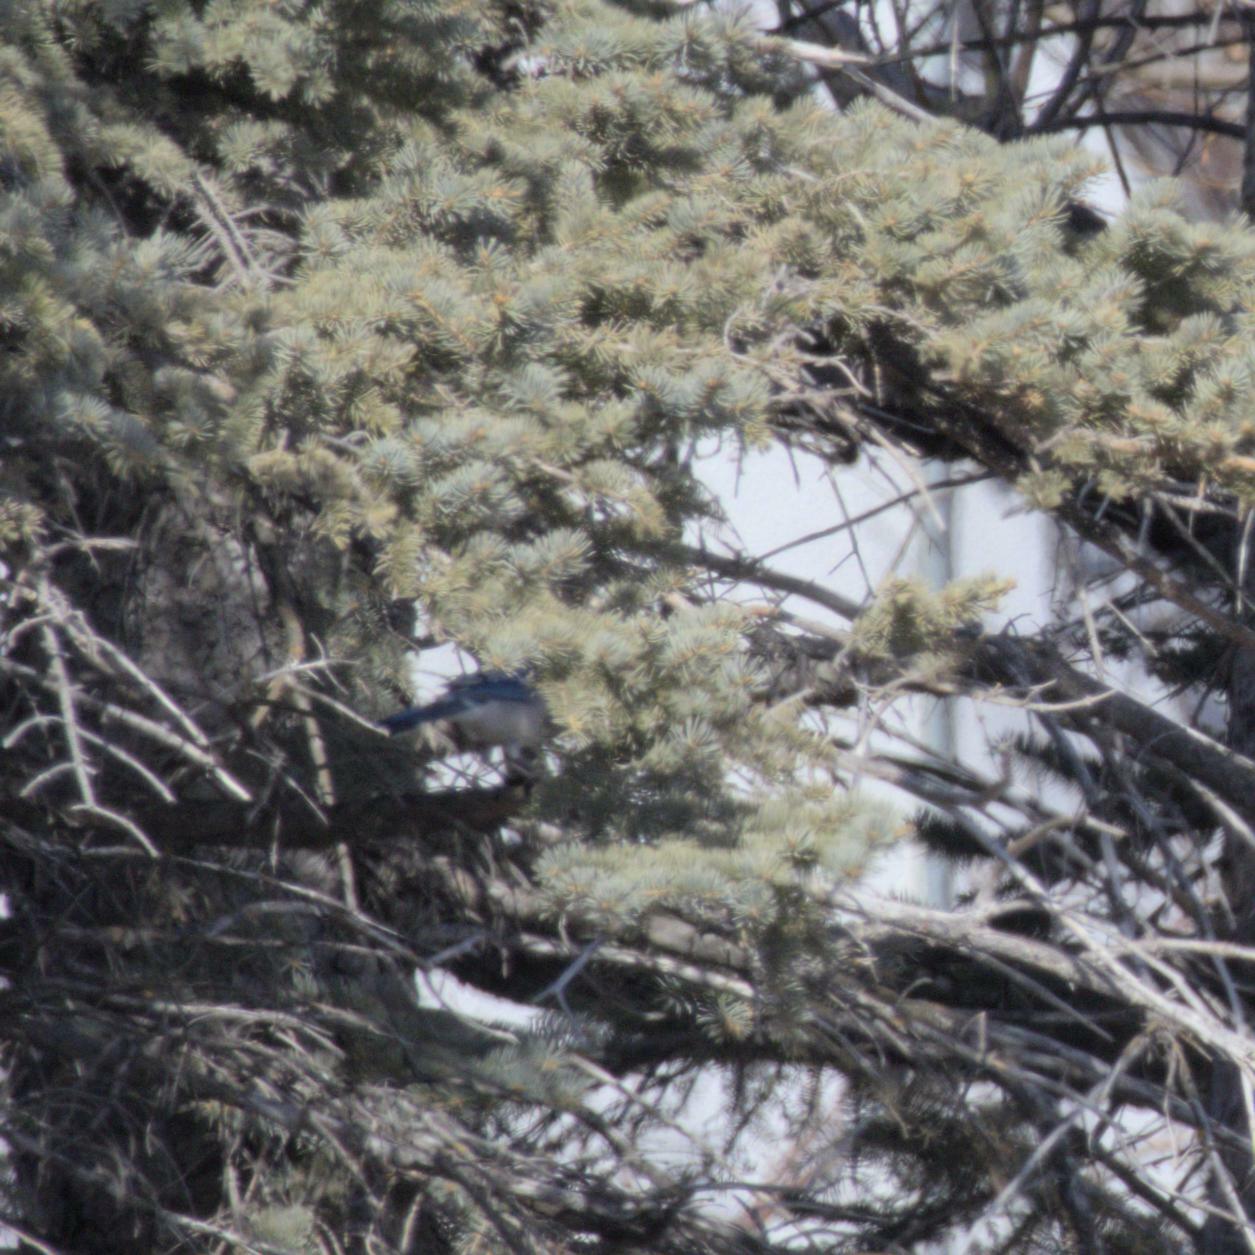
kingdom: Animalia
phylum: Chordata
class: Aves
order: Passeriformes
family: Corvidae
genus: Cyanocitta
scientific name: Cyanocitta cristata
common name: Blue jay
